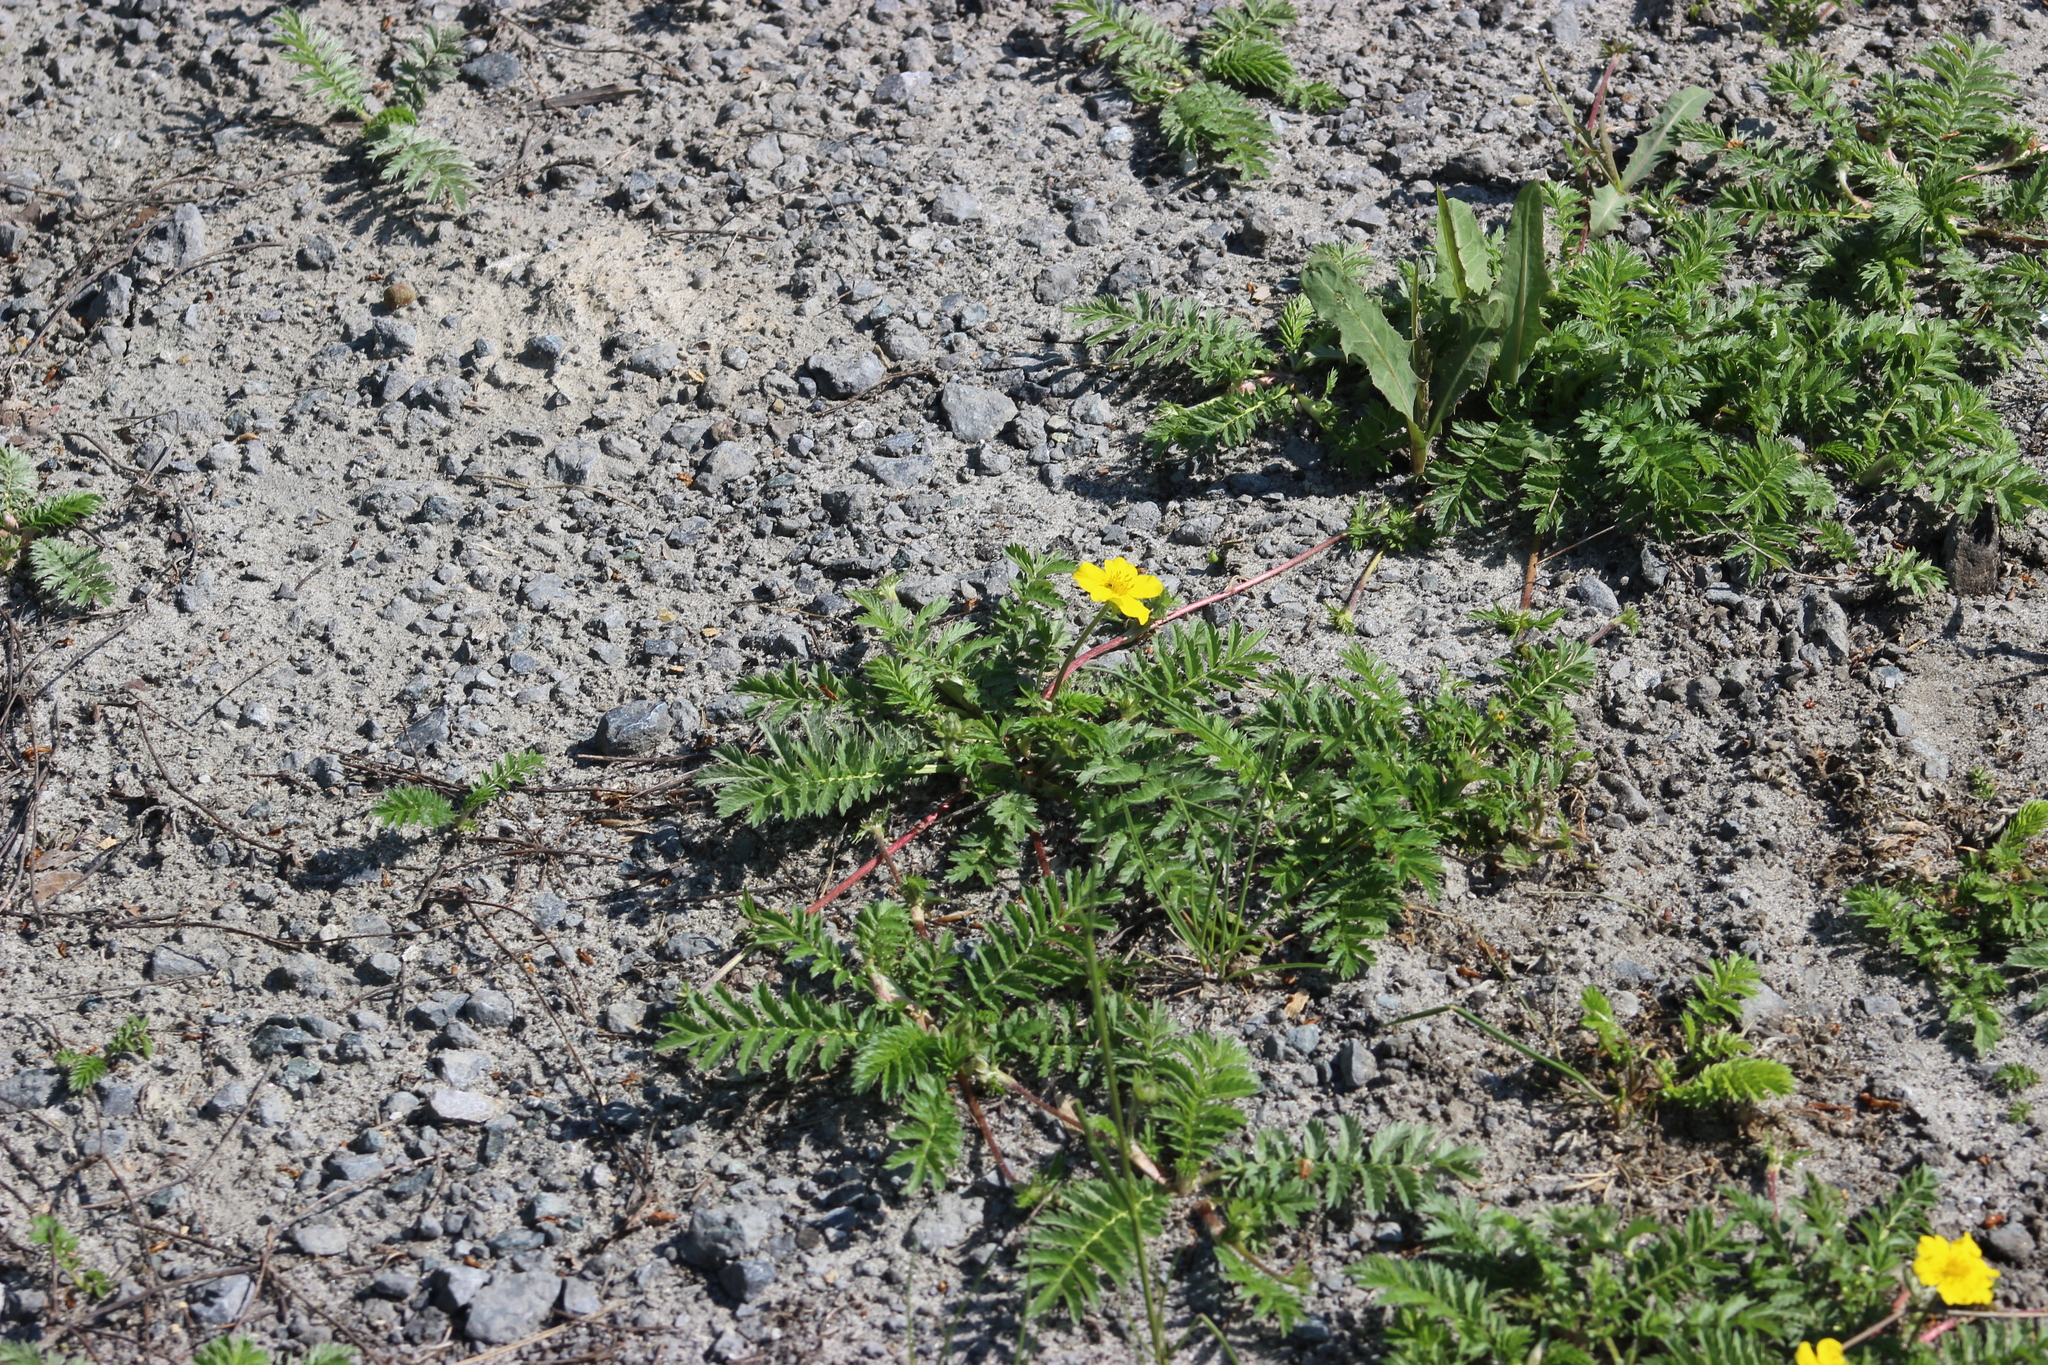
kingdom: Plantae
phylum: Tracheophyta
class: Magnoliopsida
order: Rosales
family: Rosaceae
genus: Argentina
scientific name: Argentina anserina
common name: Common silverweed
